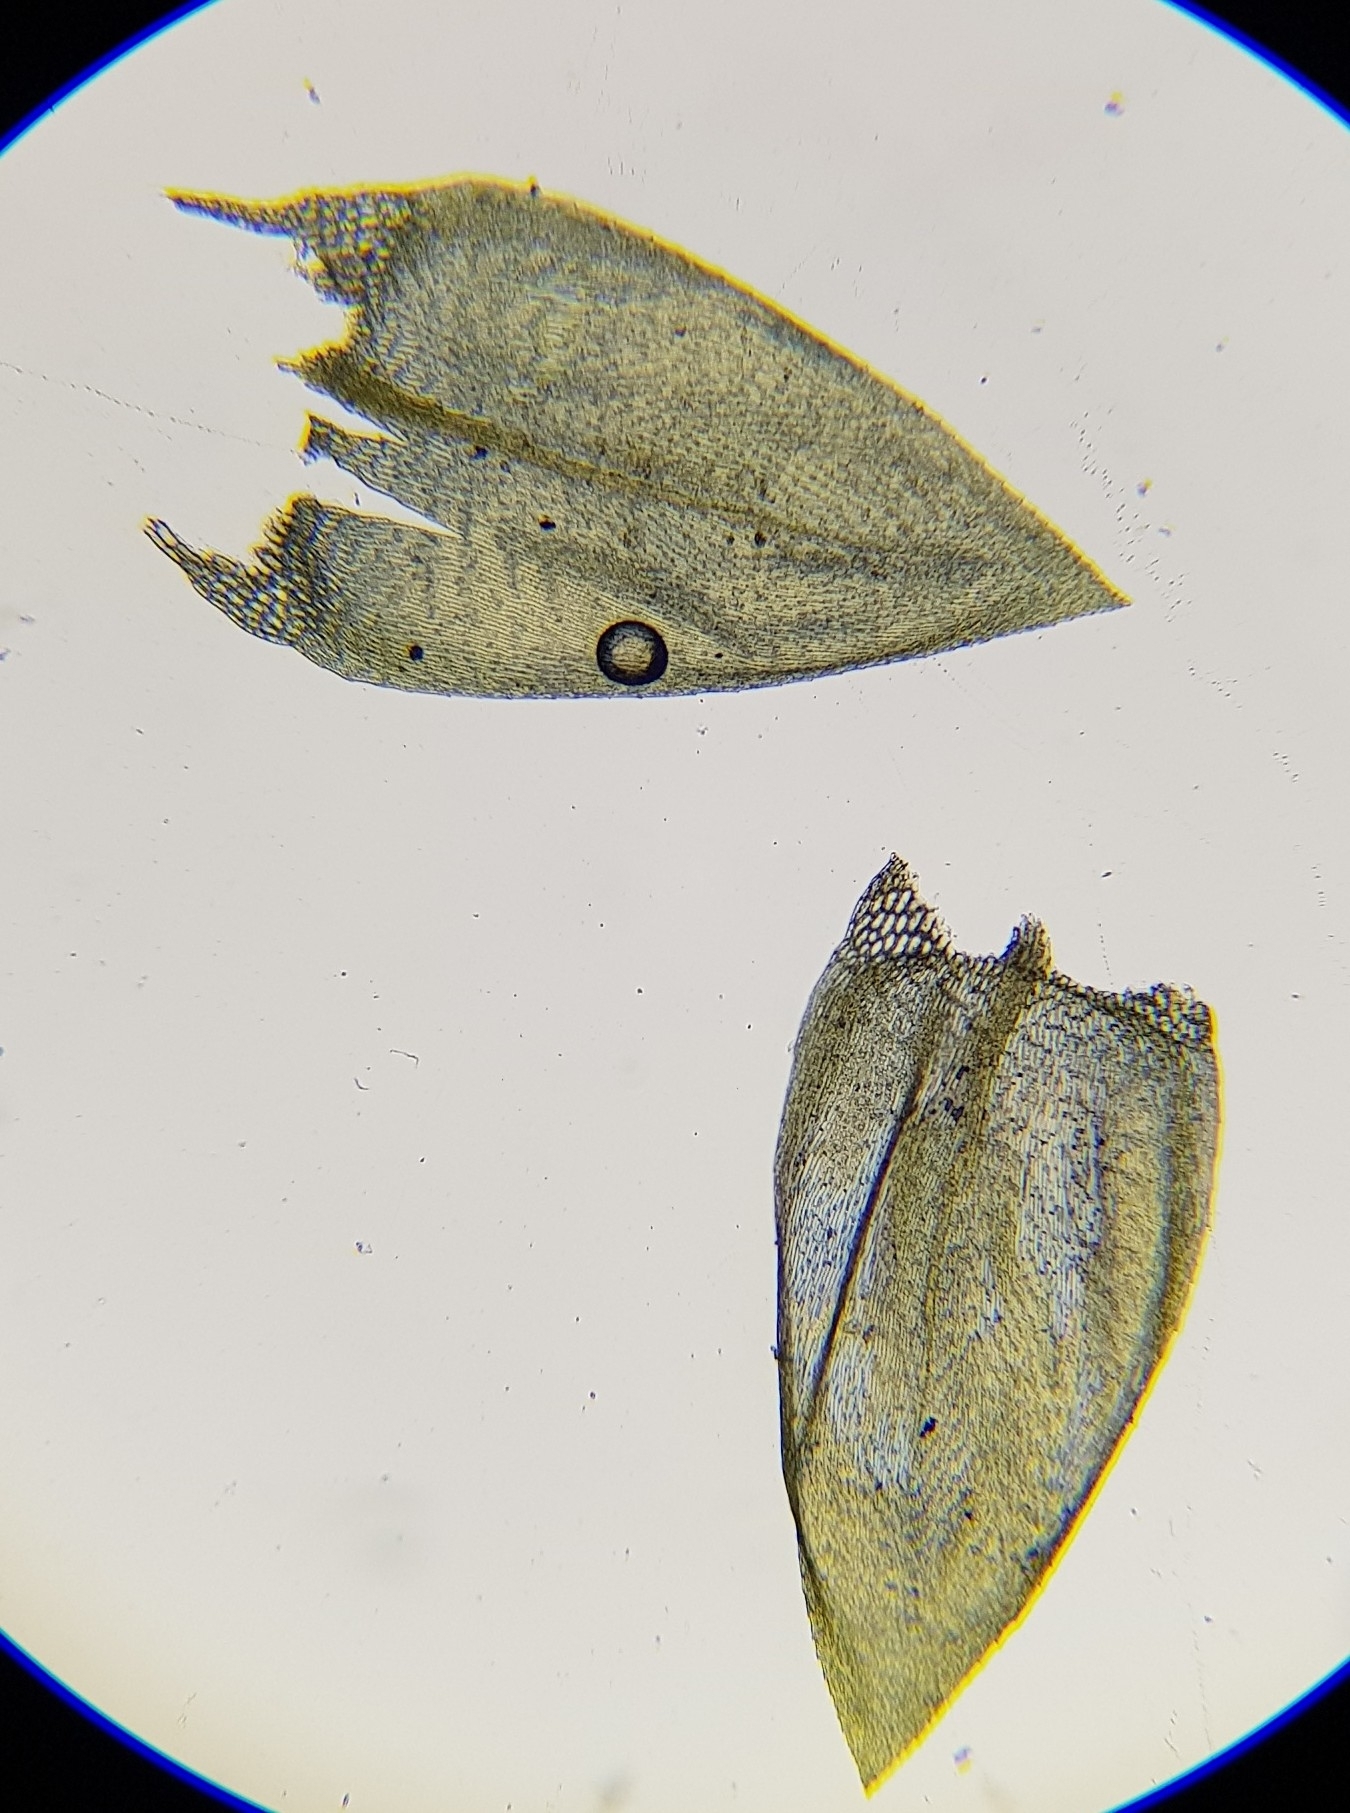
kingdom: Plantae
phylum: Bryophyta
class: Bryopsida
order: Hypnales
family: Brachytheciaceae
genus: Brachythecium
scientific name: Brachythecium rivulare
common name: River ragged moss
